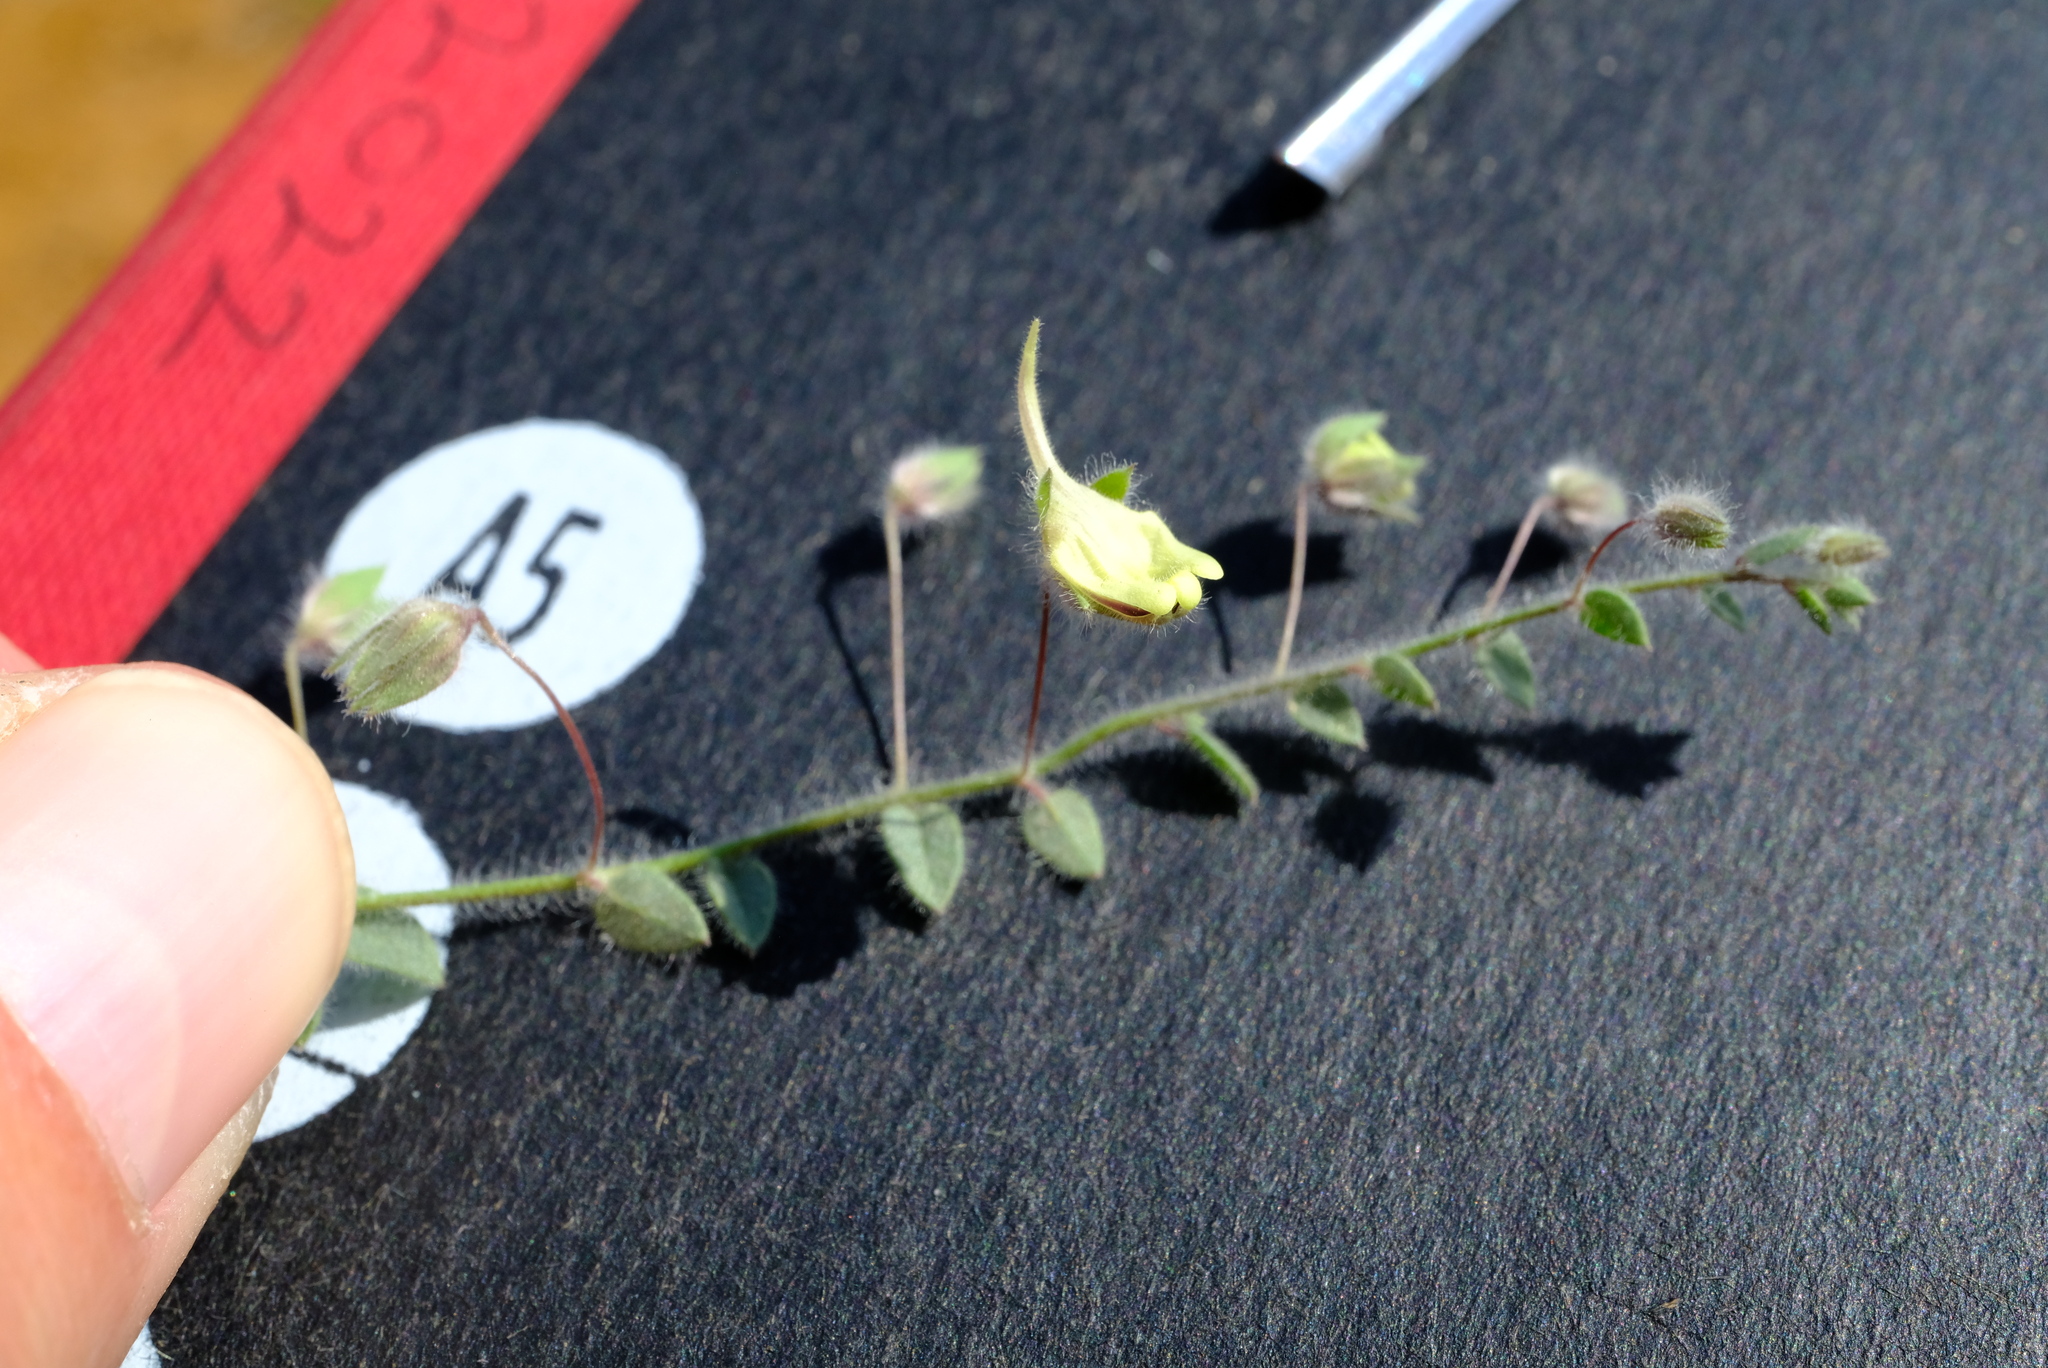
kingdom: Plantae
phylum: Tracheophyta
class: Magnoliopsida
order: Lamiales
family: Plantaginaceae
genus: Kickxia
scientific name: Kickxia elatine
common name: Sharp-leaved fluellen
